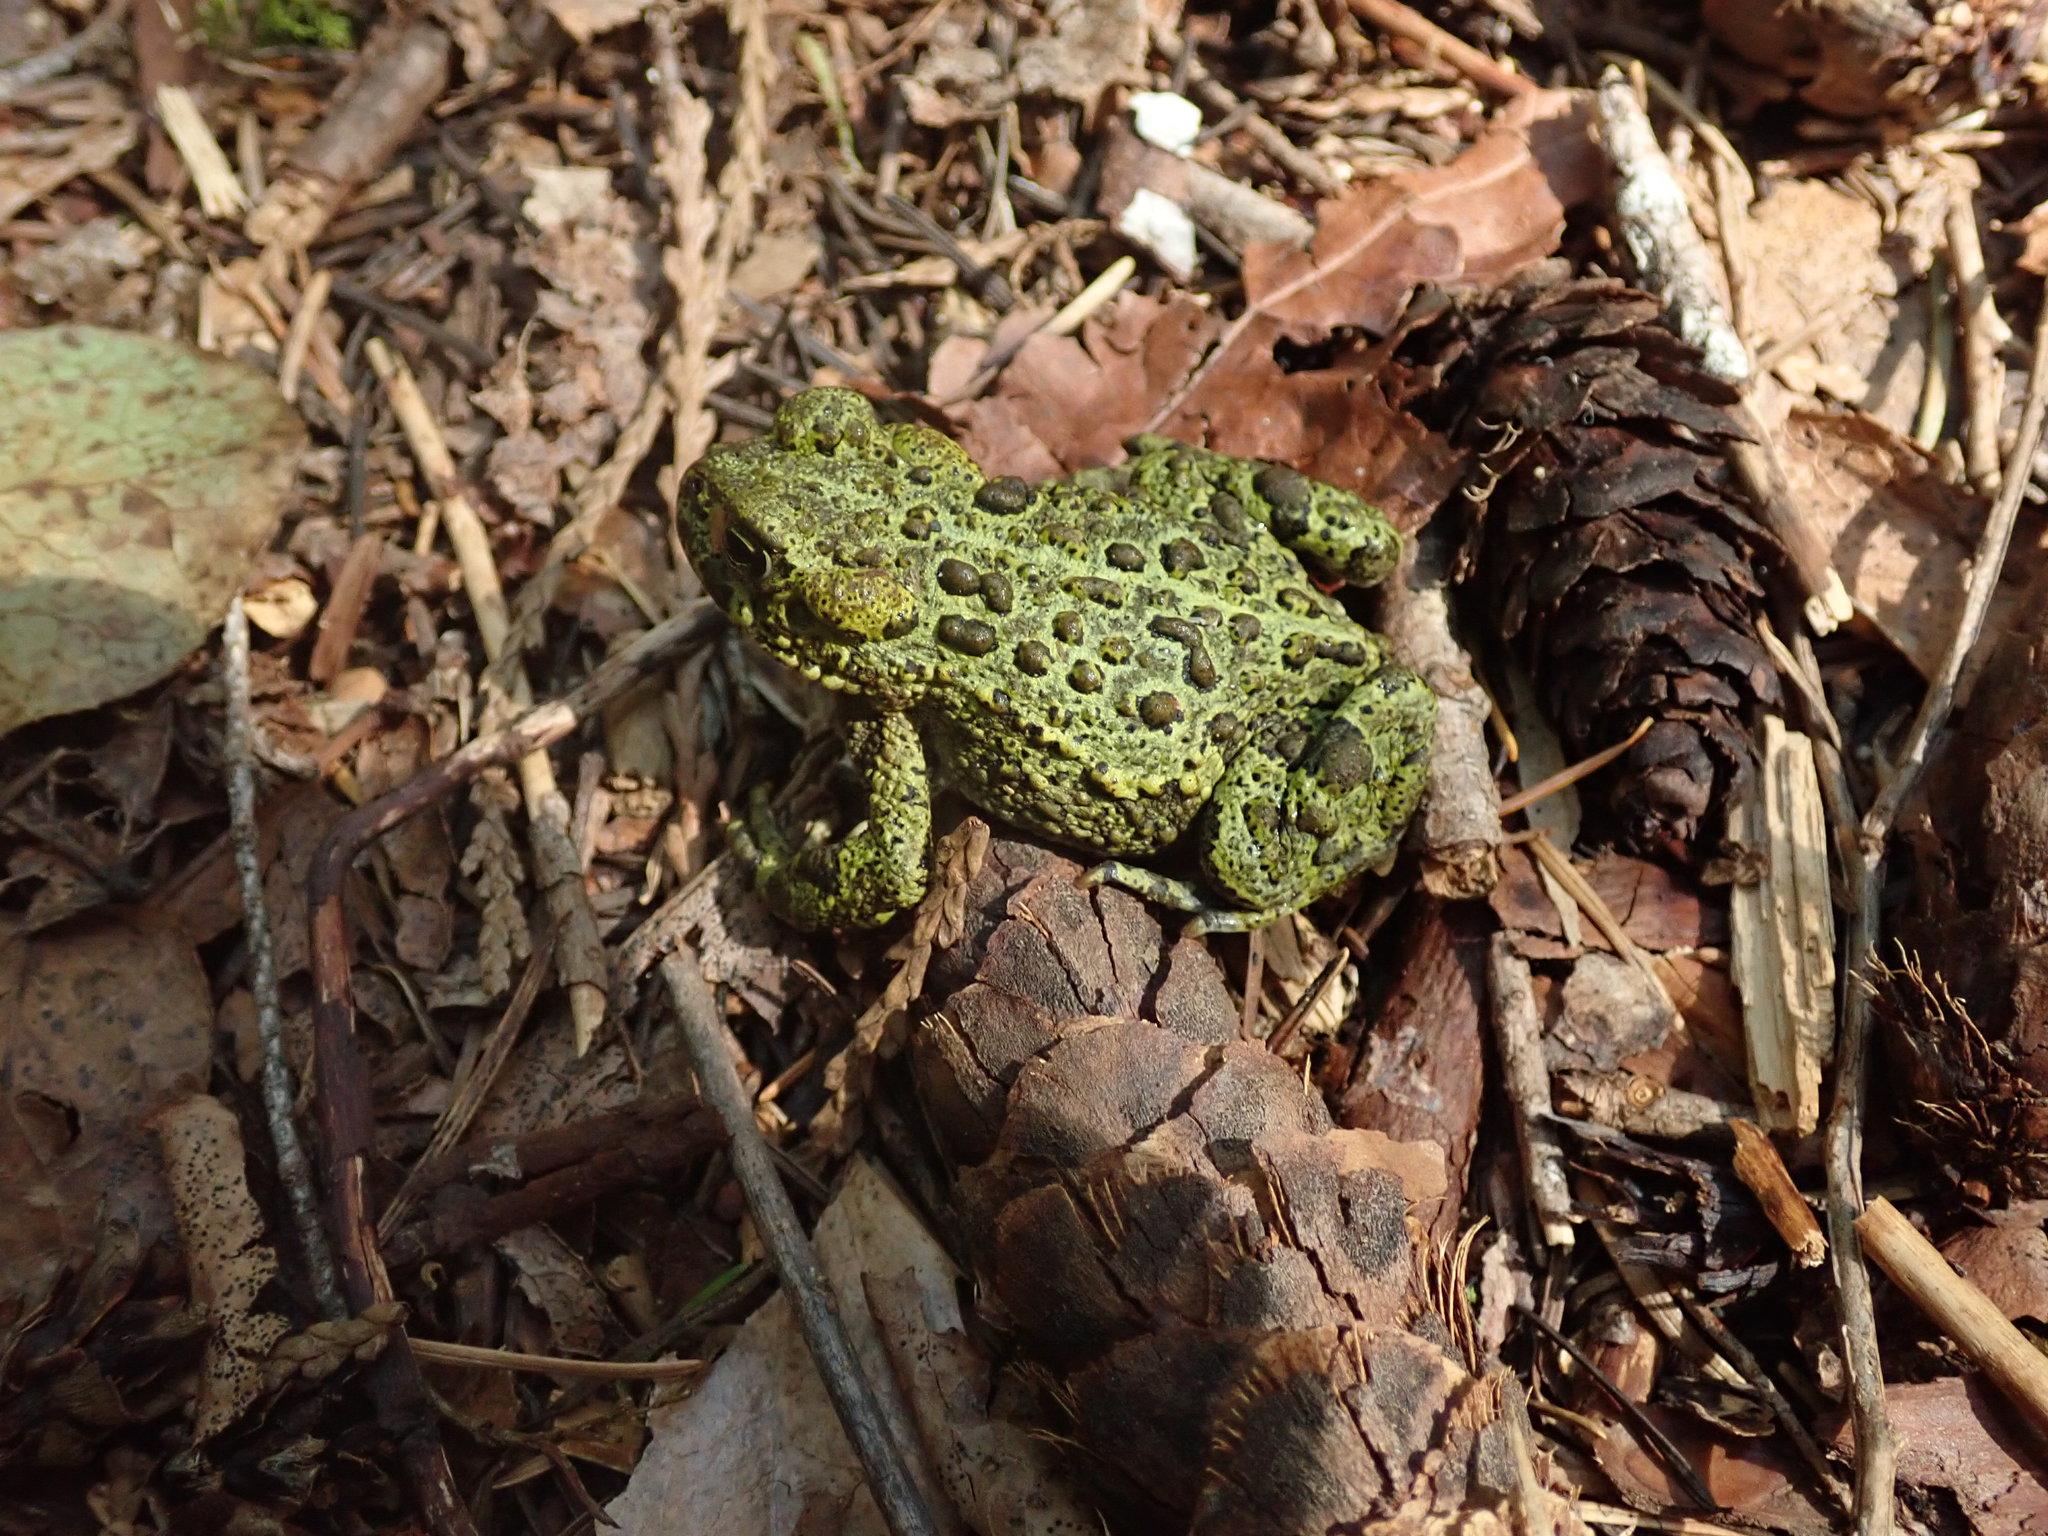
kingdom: Animalia
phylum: Chordata
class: Amphibia
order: Anura
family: Bufonidae
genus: Anaxyrus
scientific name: Anaxyrus boreas
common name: Western toad
